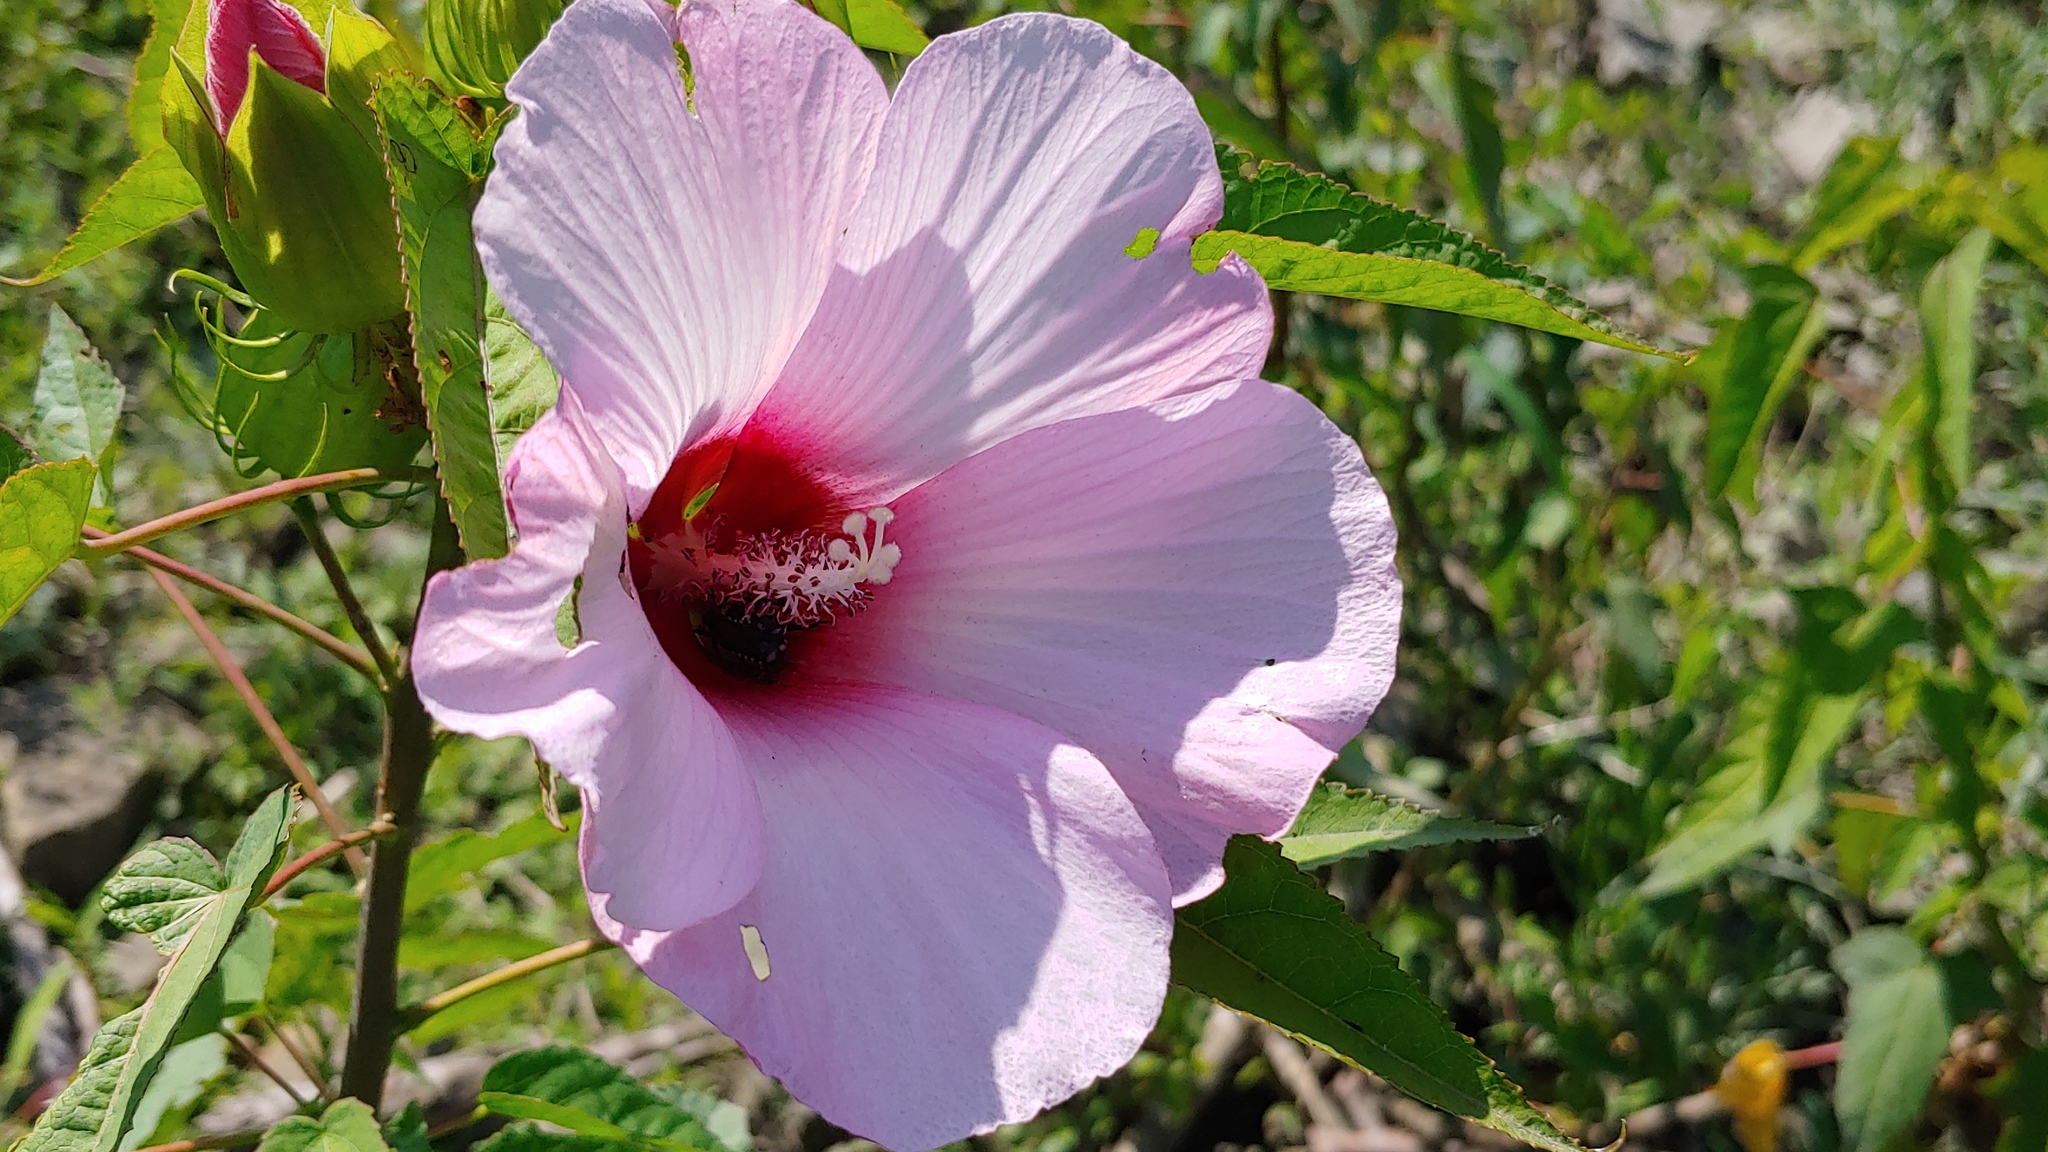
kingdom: Plantae
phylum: Tracheophyta
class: Magnoliopsida
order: Malvales
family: Malvaceae
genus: Hibiscus
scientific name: Hibiscus laevis
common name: Scarlet rose-mallow
